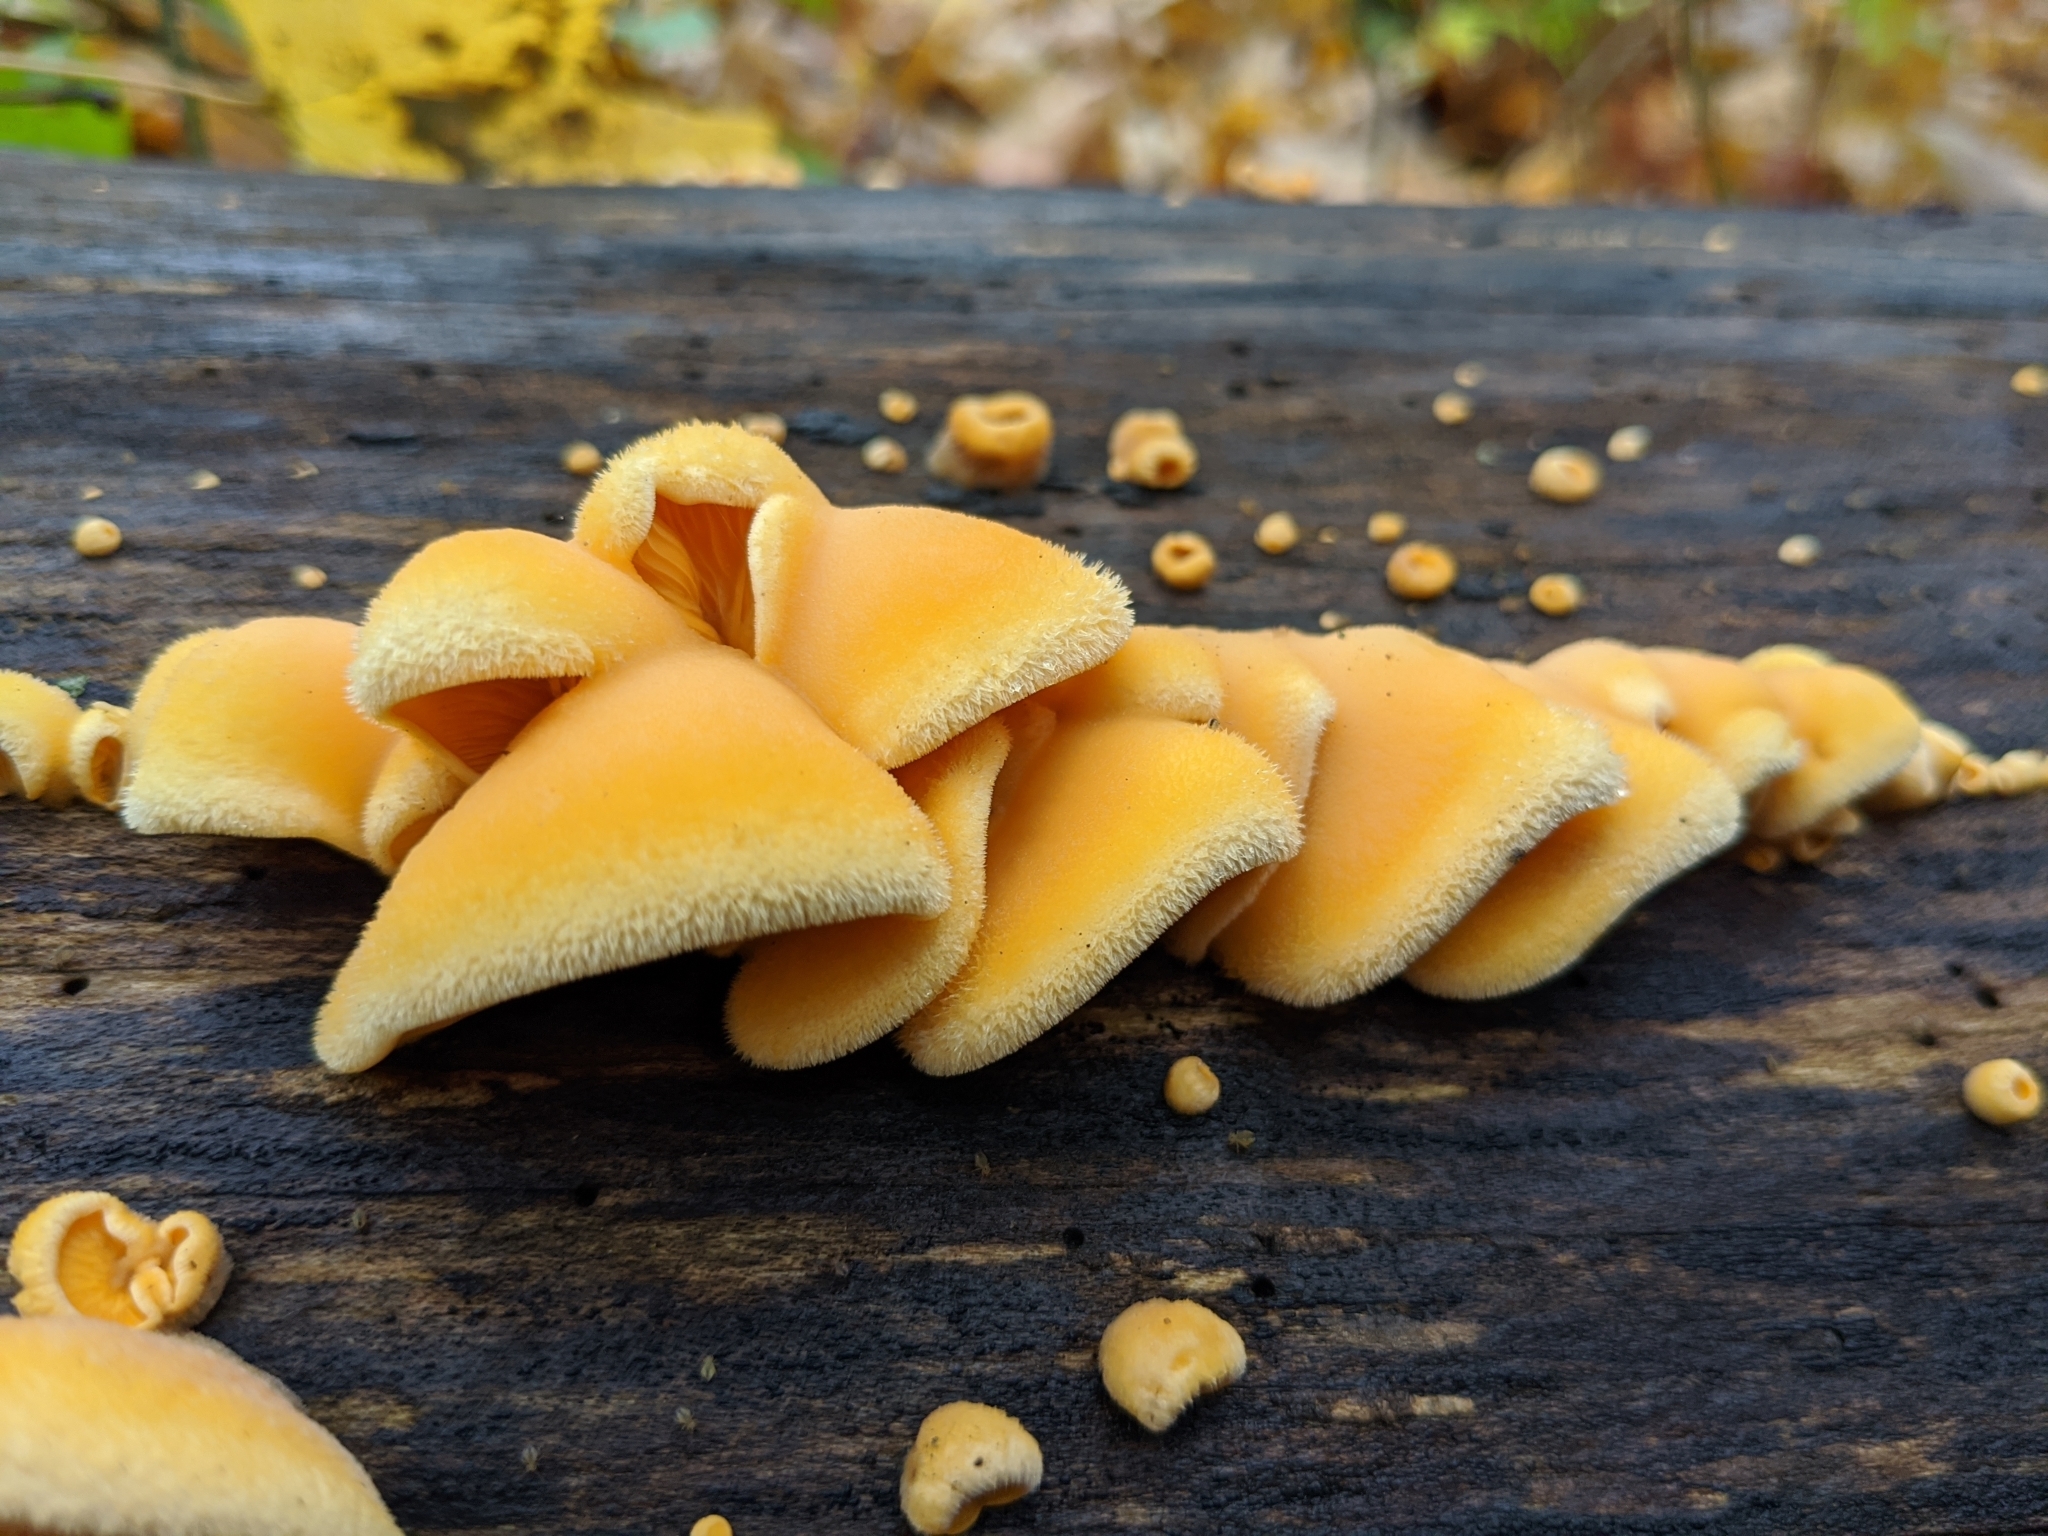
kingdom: Fungi
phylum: Basidiomycota
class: Agaricomycetes
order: Agaricales
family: Phyllotopsidaceae
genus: Phyllotopsis
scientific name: Phyllotopsis nidulans
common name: Orange mock oyster
